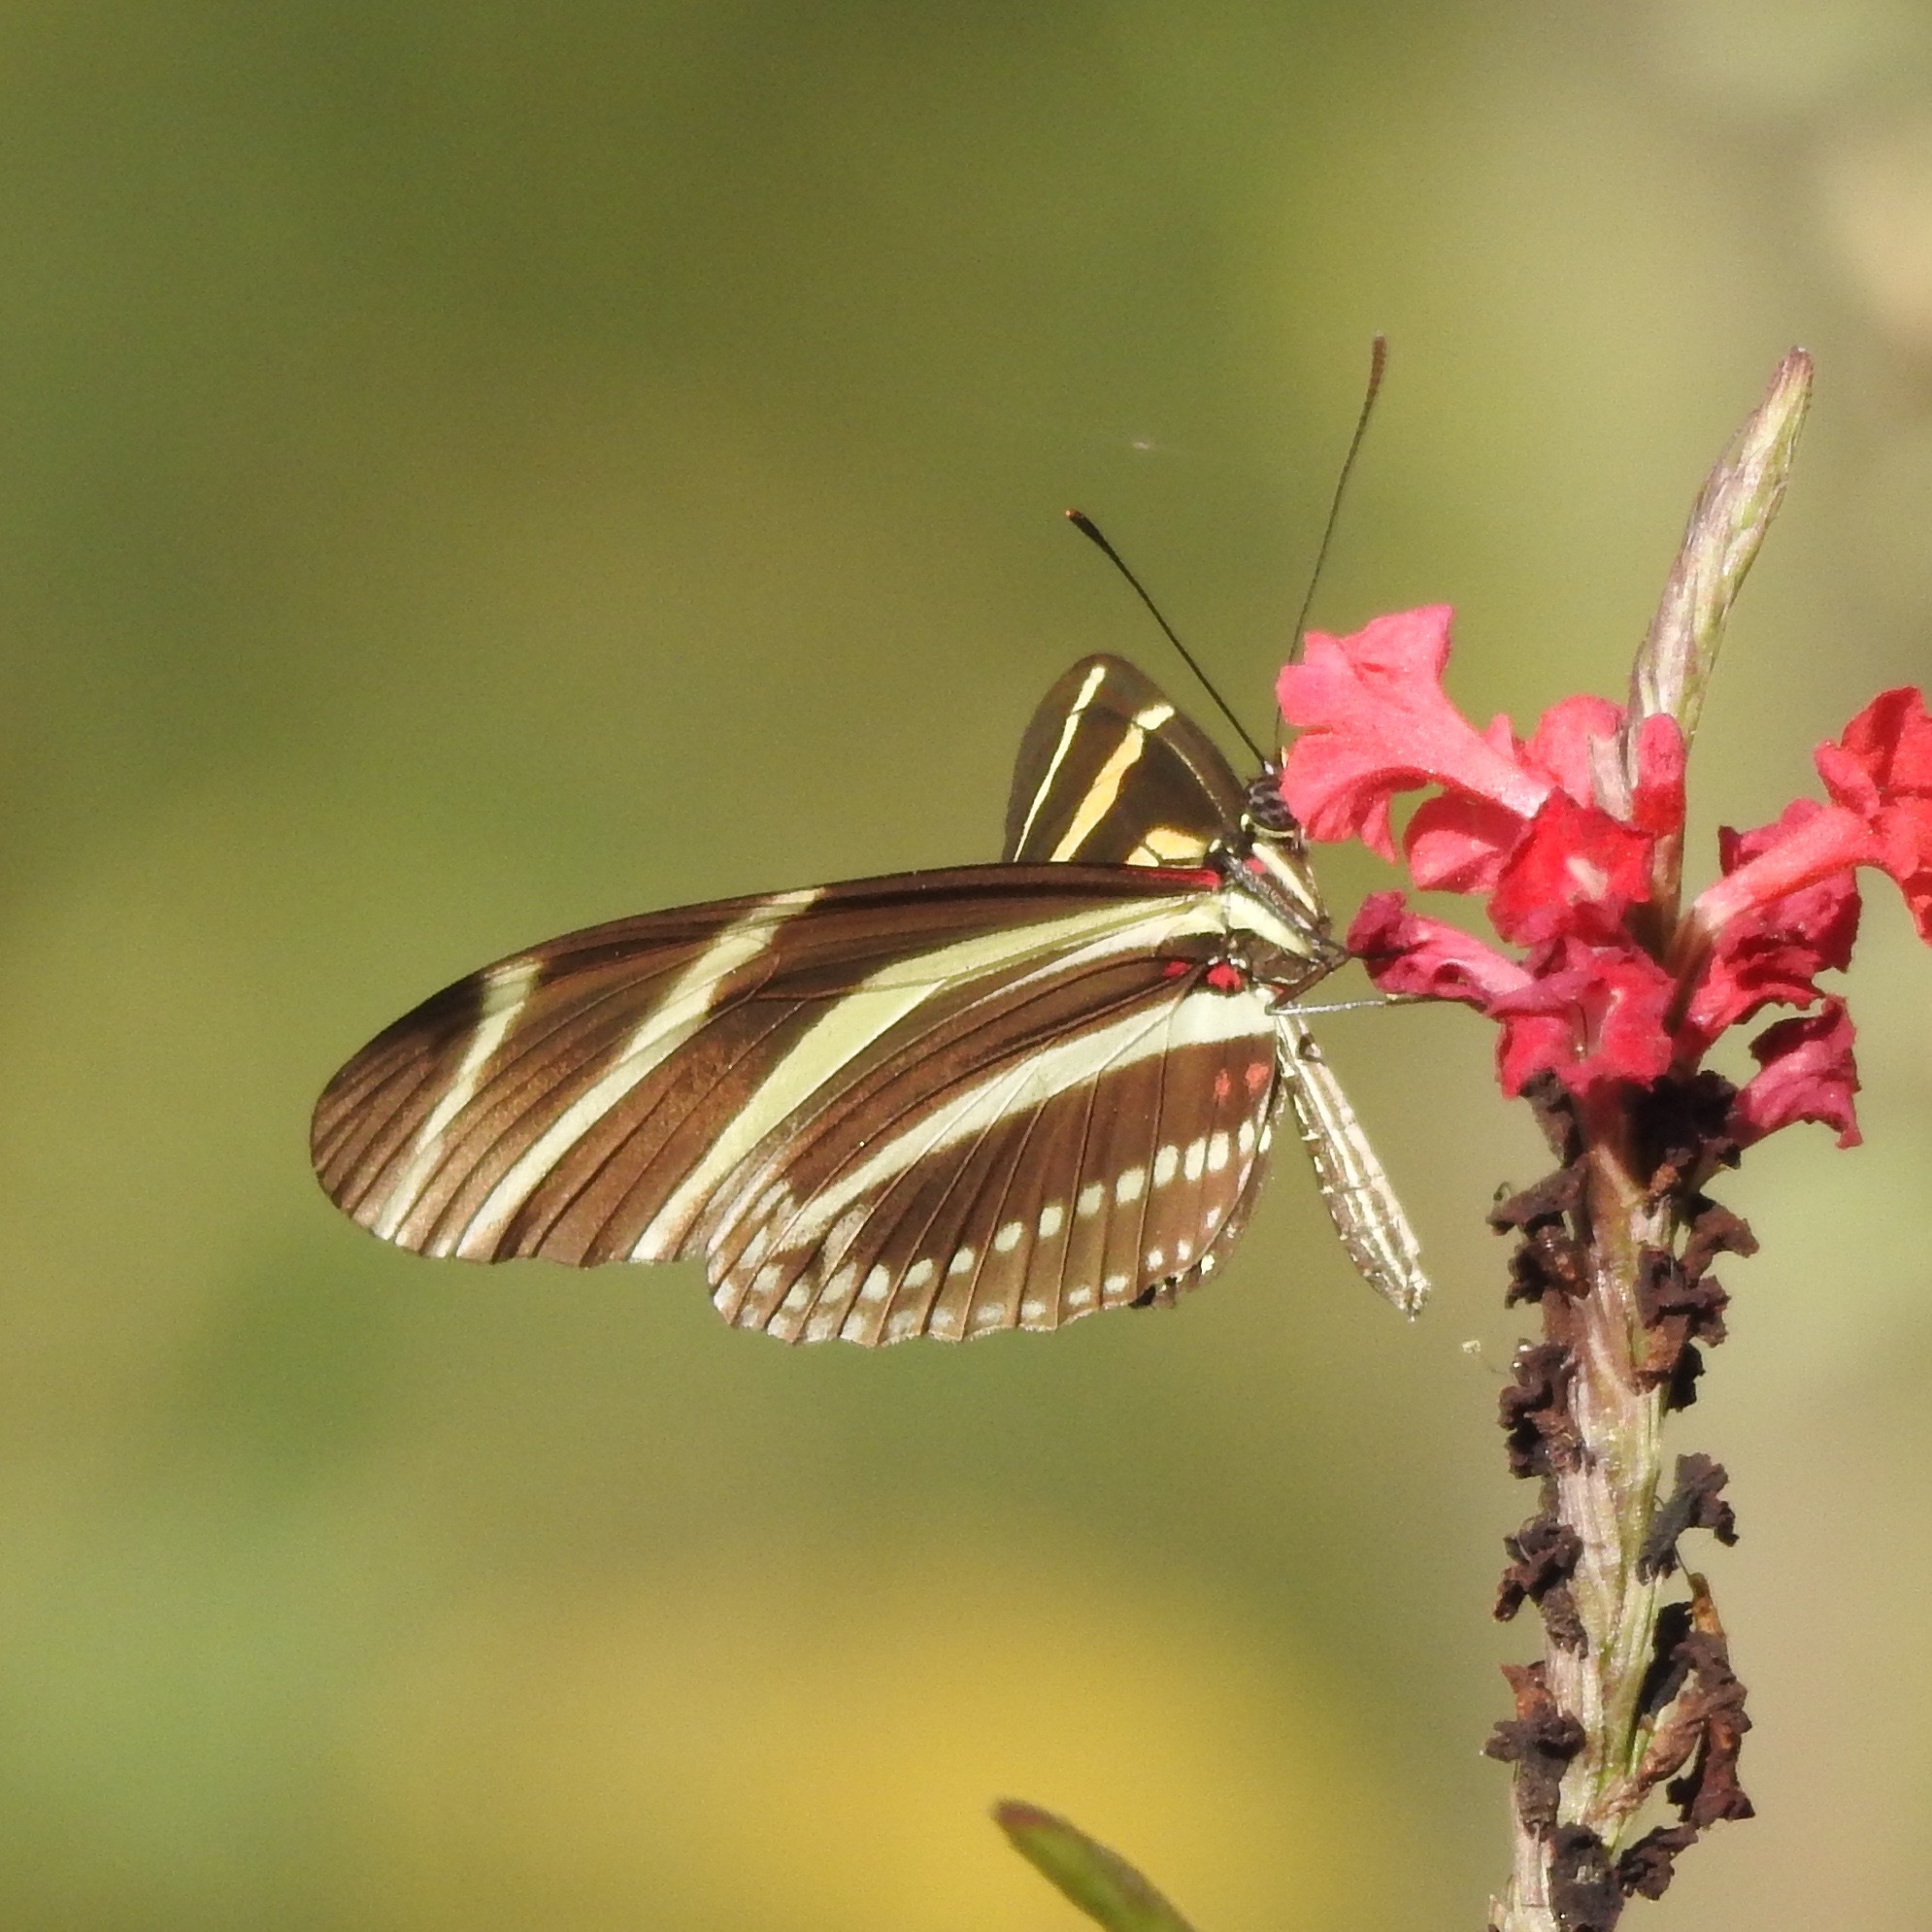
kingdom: Animalia
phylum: Arthropoda
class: Insecta
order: Lepidoptera
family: Nymphalidae
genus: Heliconius
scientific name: Heliconius charithonia
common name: Zebra long wing
